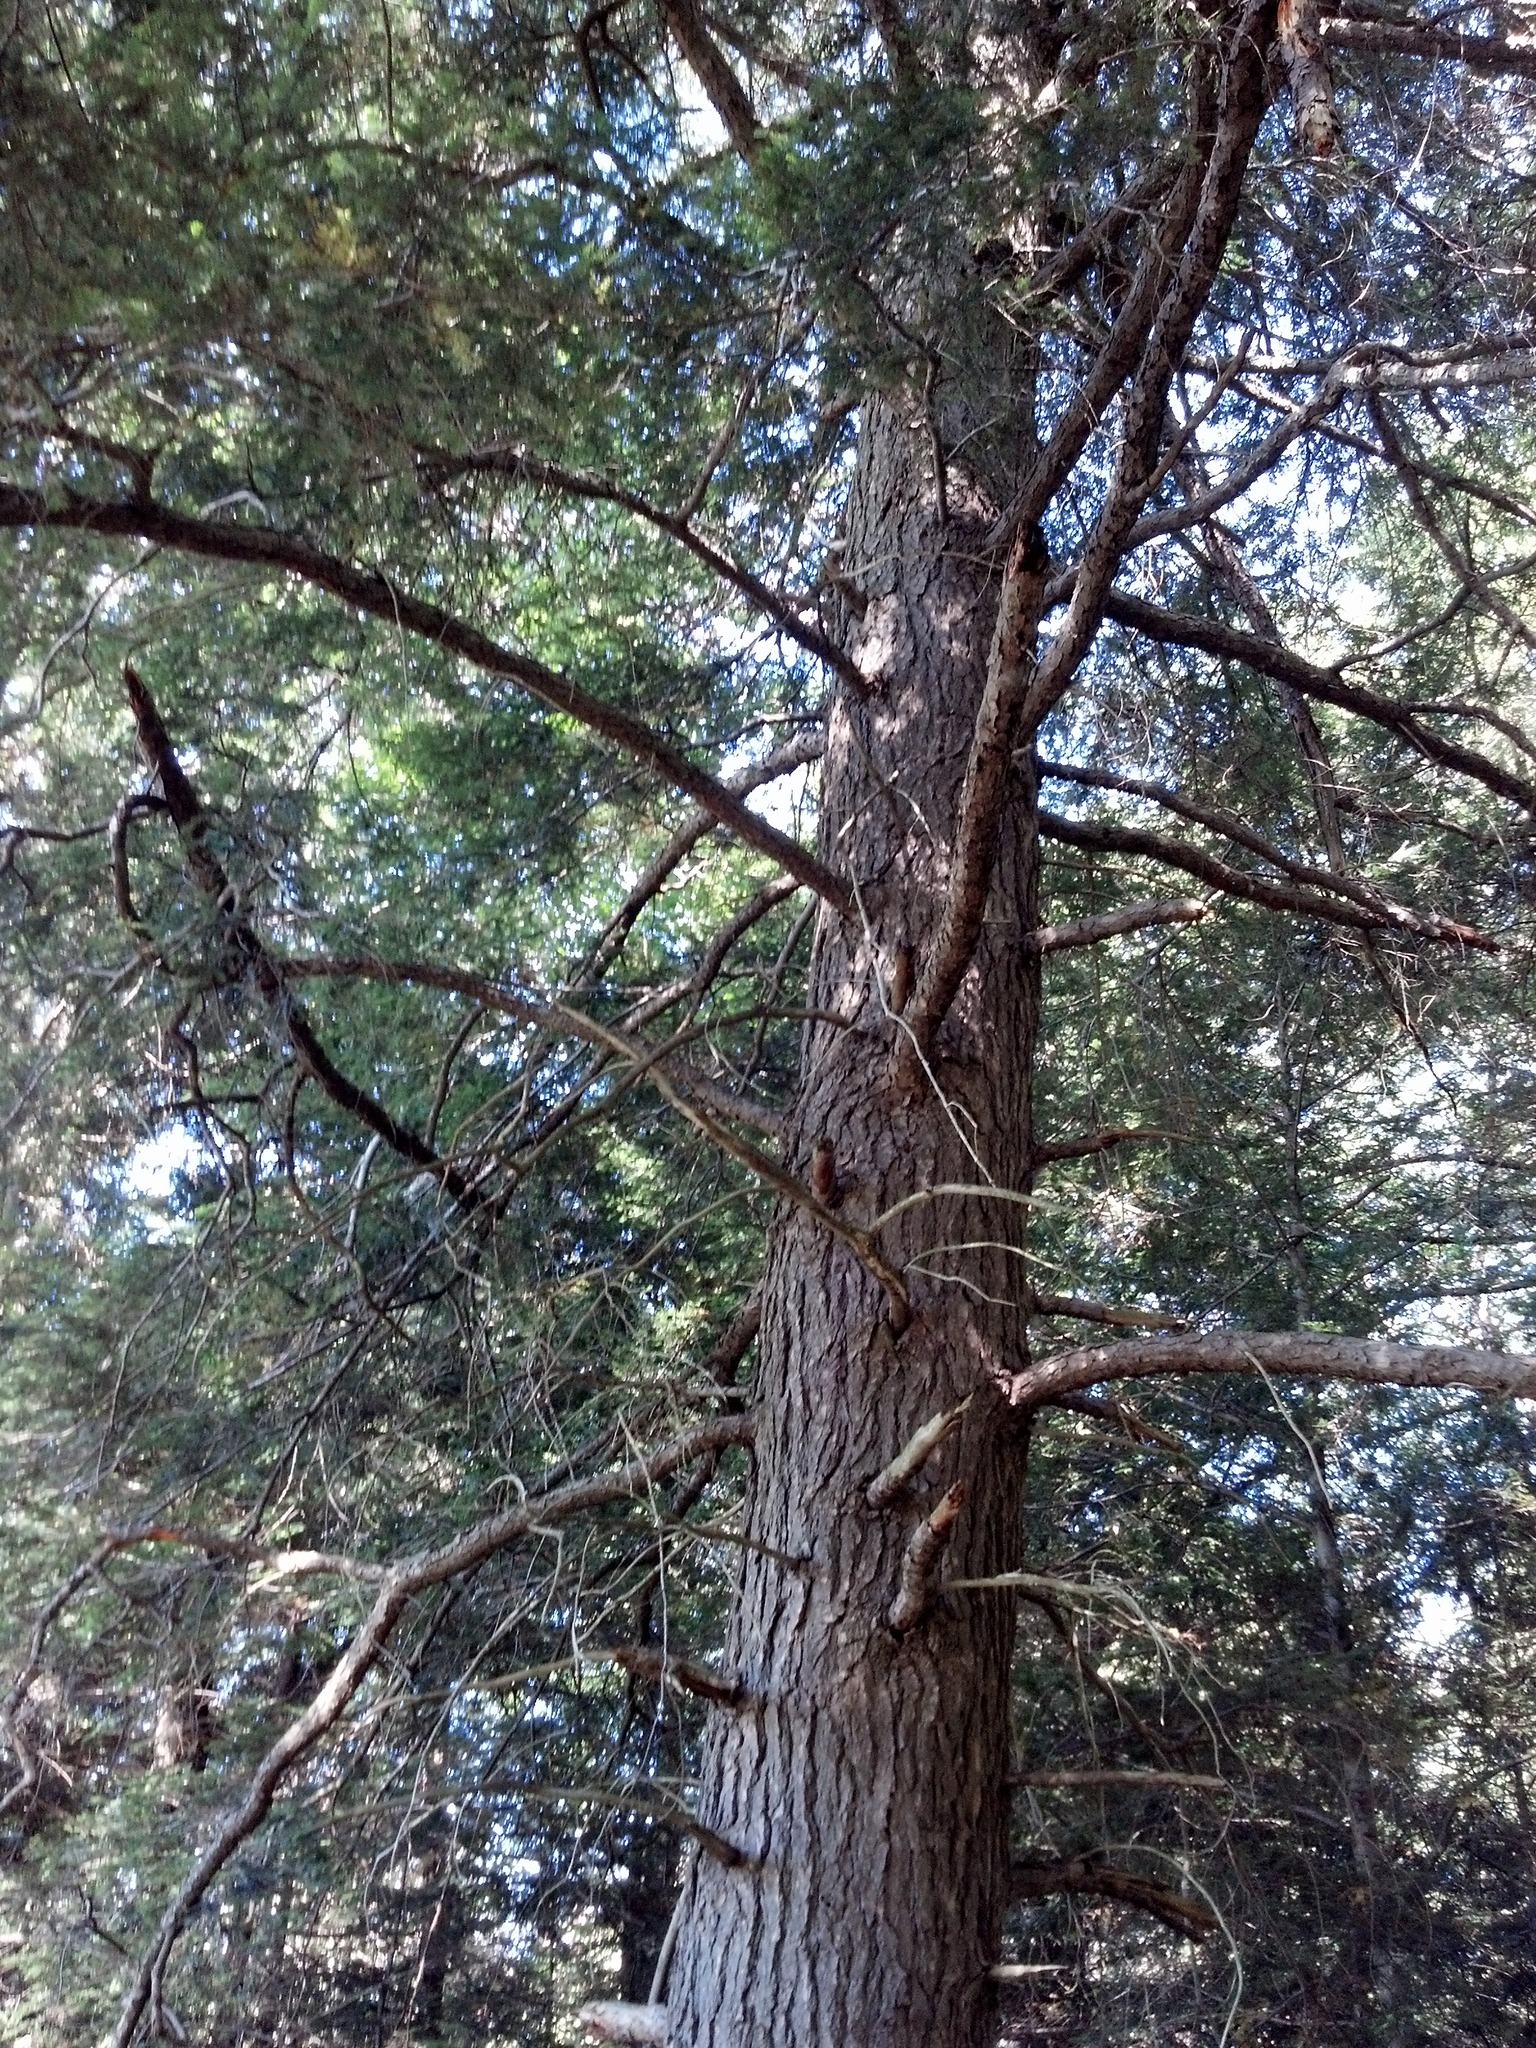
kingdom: Plantae
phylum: Tracheophyta
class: Pinopsida
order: Pinales
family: Pinaceae
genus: Tsuga
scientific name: Tsuga canadensis
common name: Eastern hemlock
